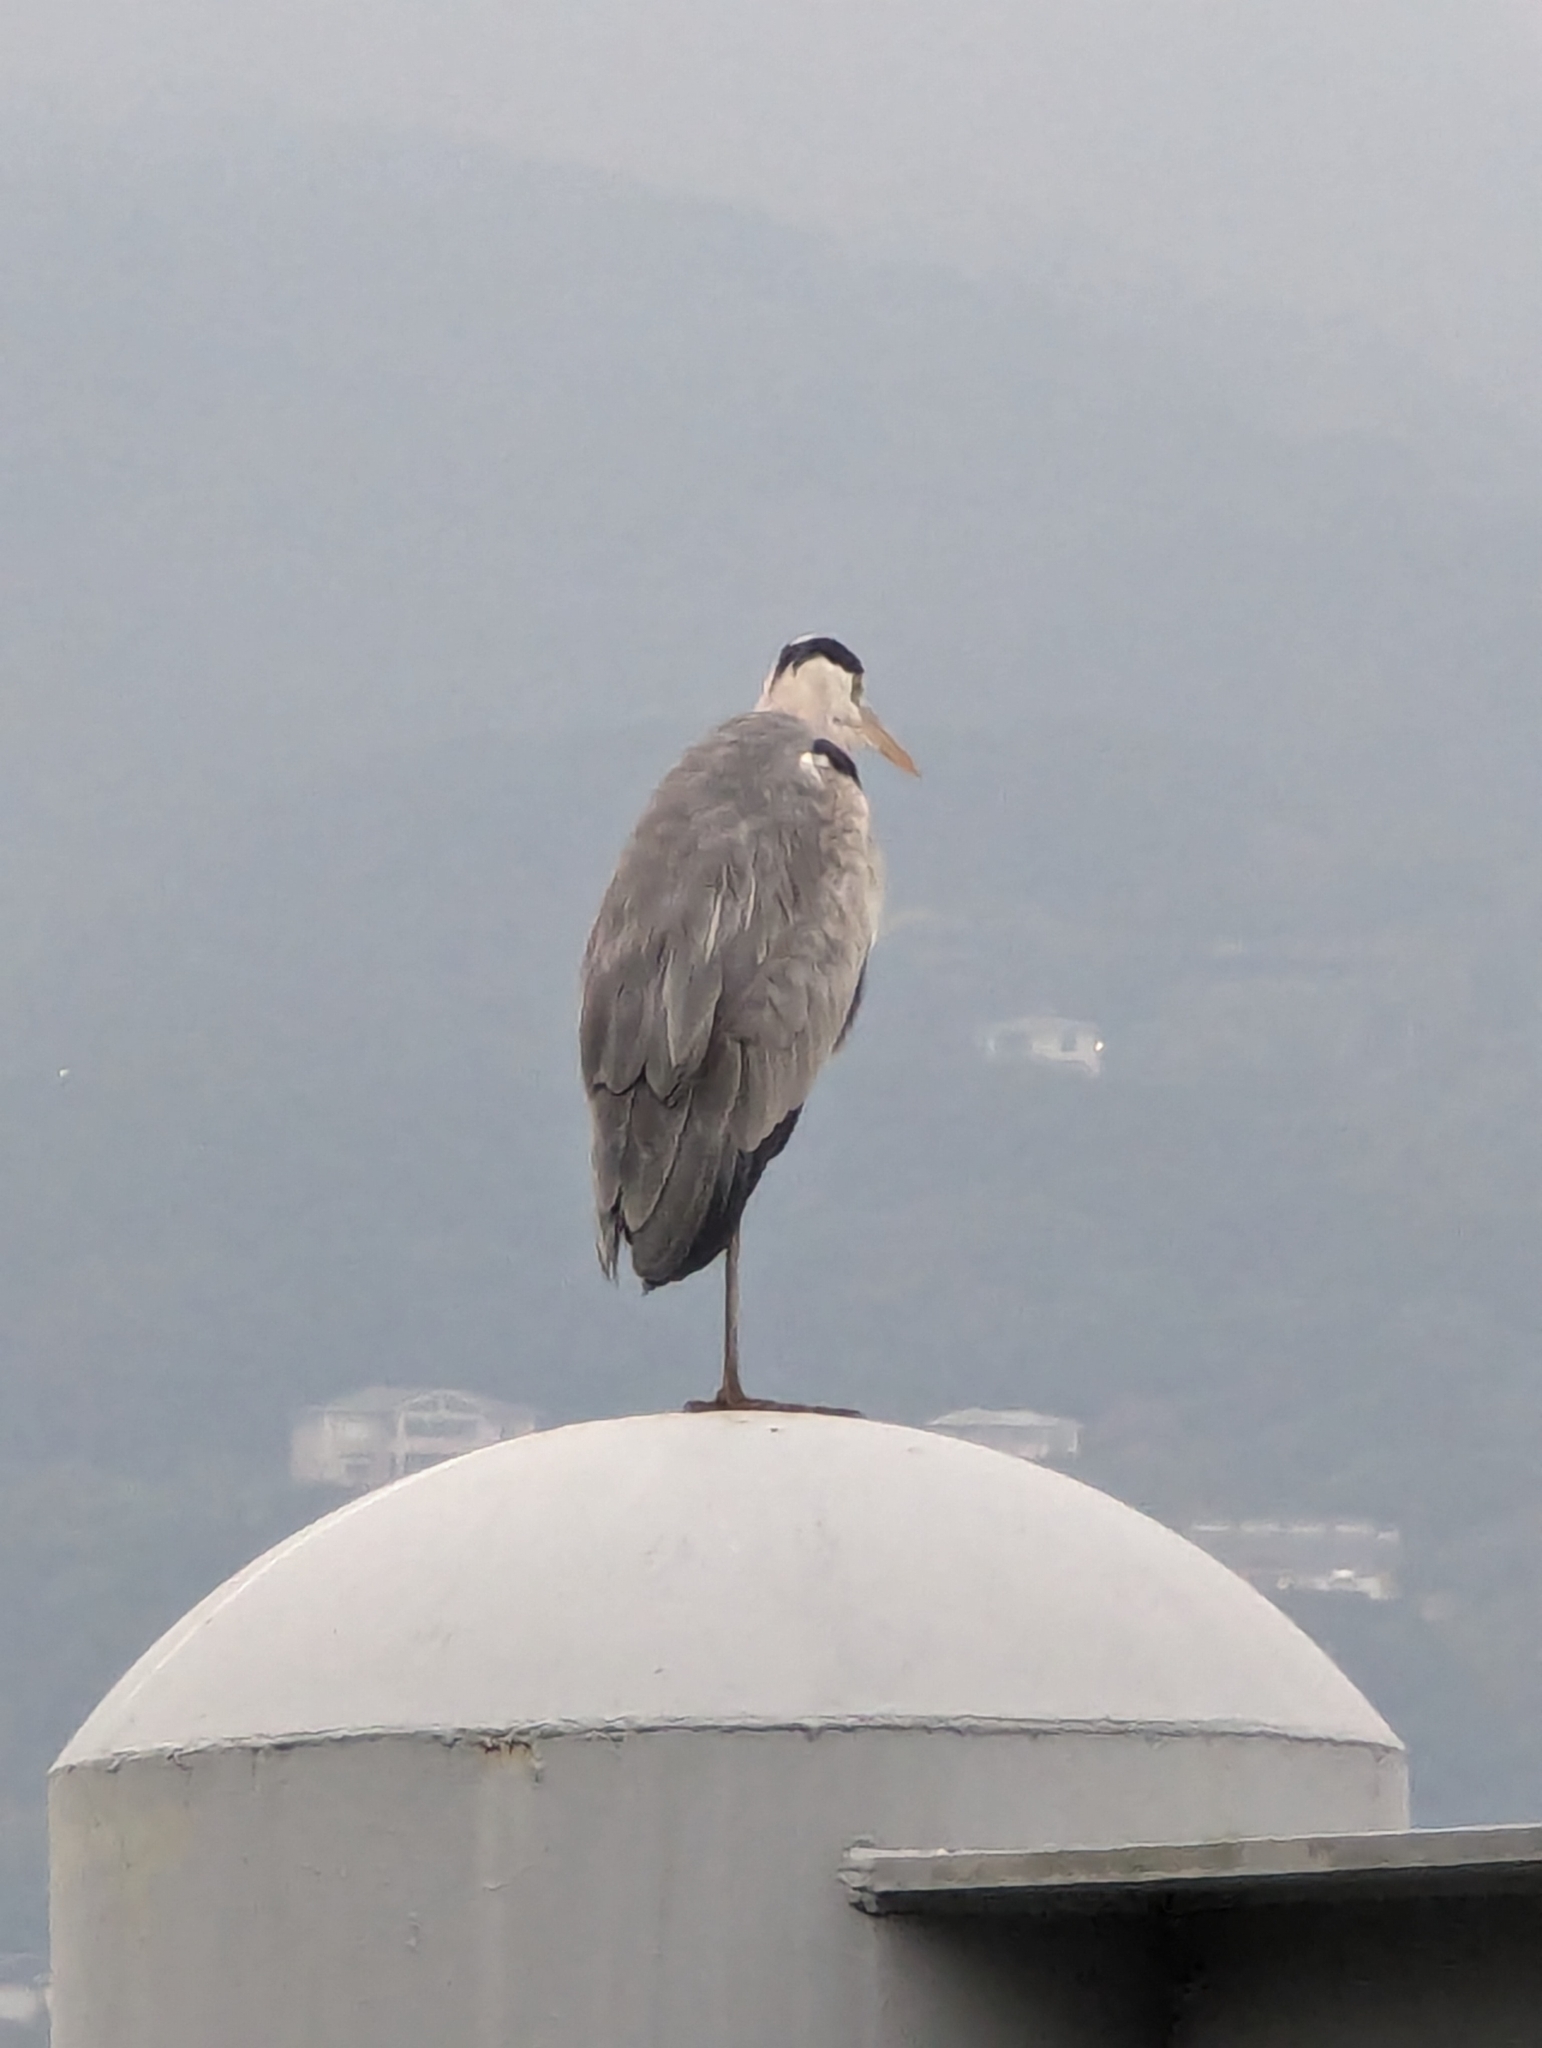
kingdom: Animalia
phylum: Chordata
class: Aves
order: Pelecaniformes
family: Ardeidae
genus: Ardea
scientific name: Ardea cinerea
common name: Grey heron
